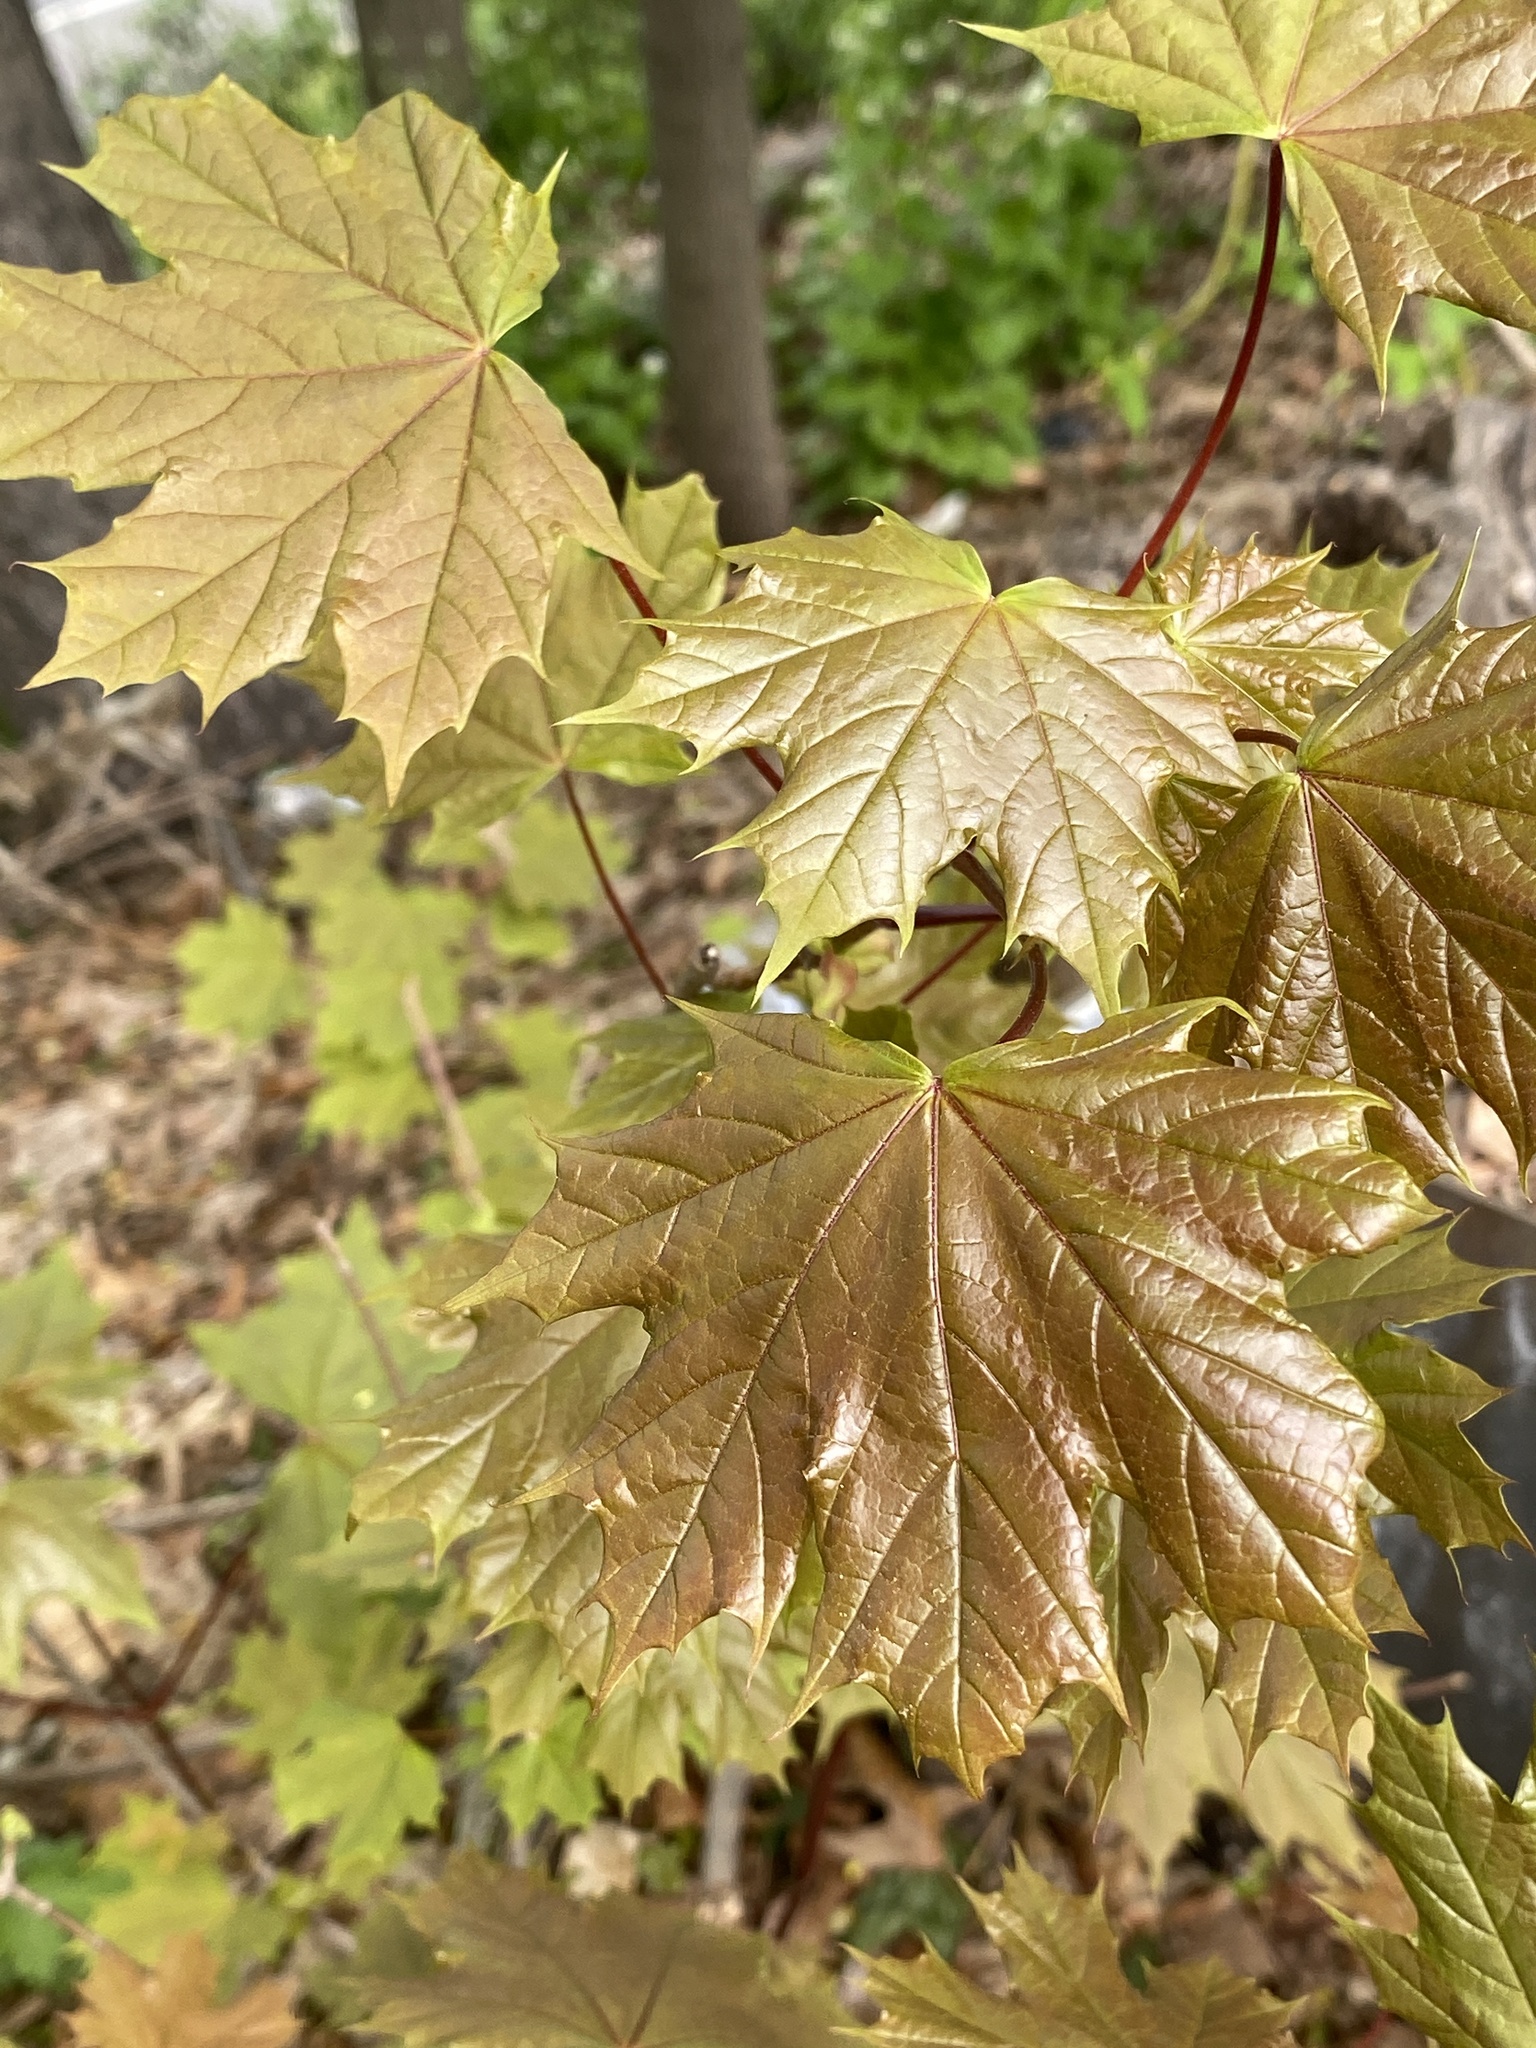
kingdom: Plantae
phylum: Tracheophyta
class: Magnoliopsida
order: Sapindales
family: Sapindaceae
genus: Acer
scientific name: Acer platanoides
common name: Norway maple
